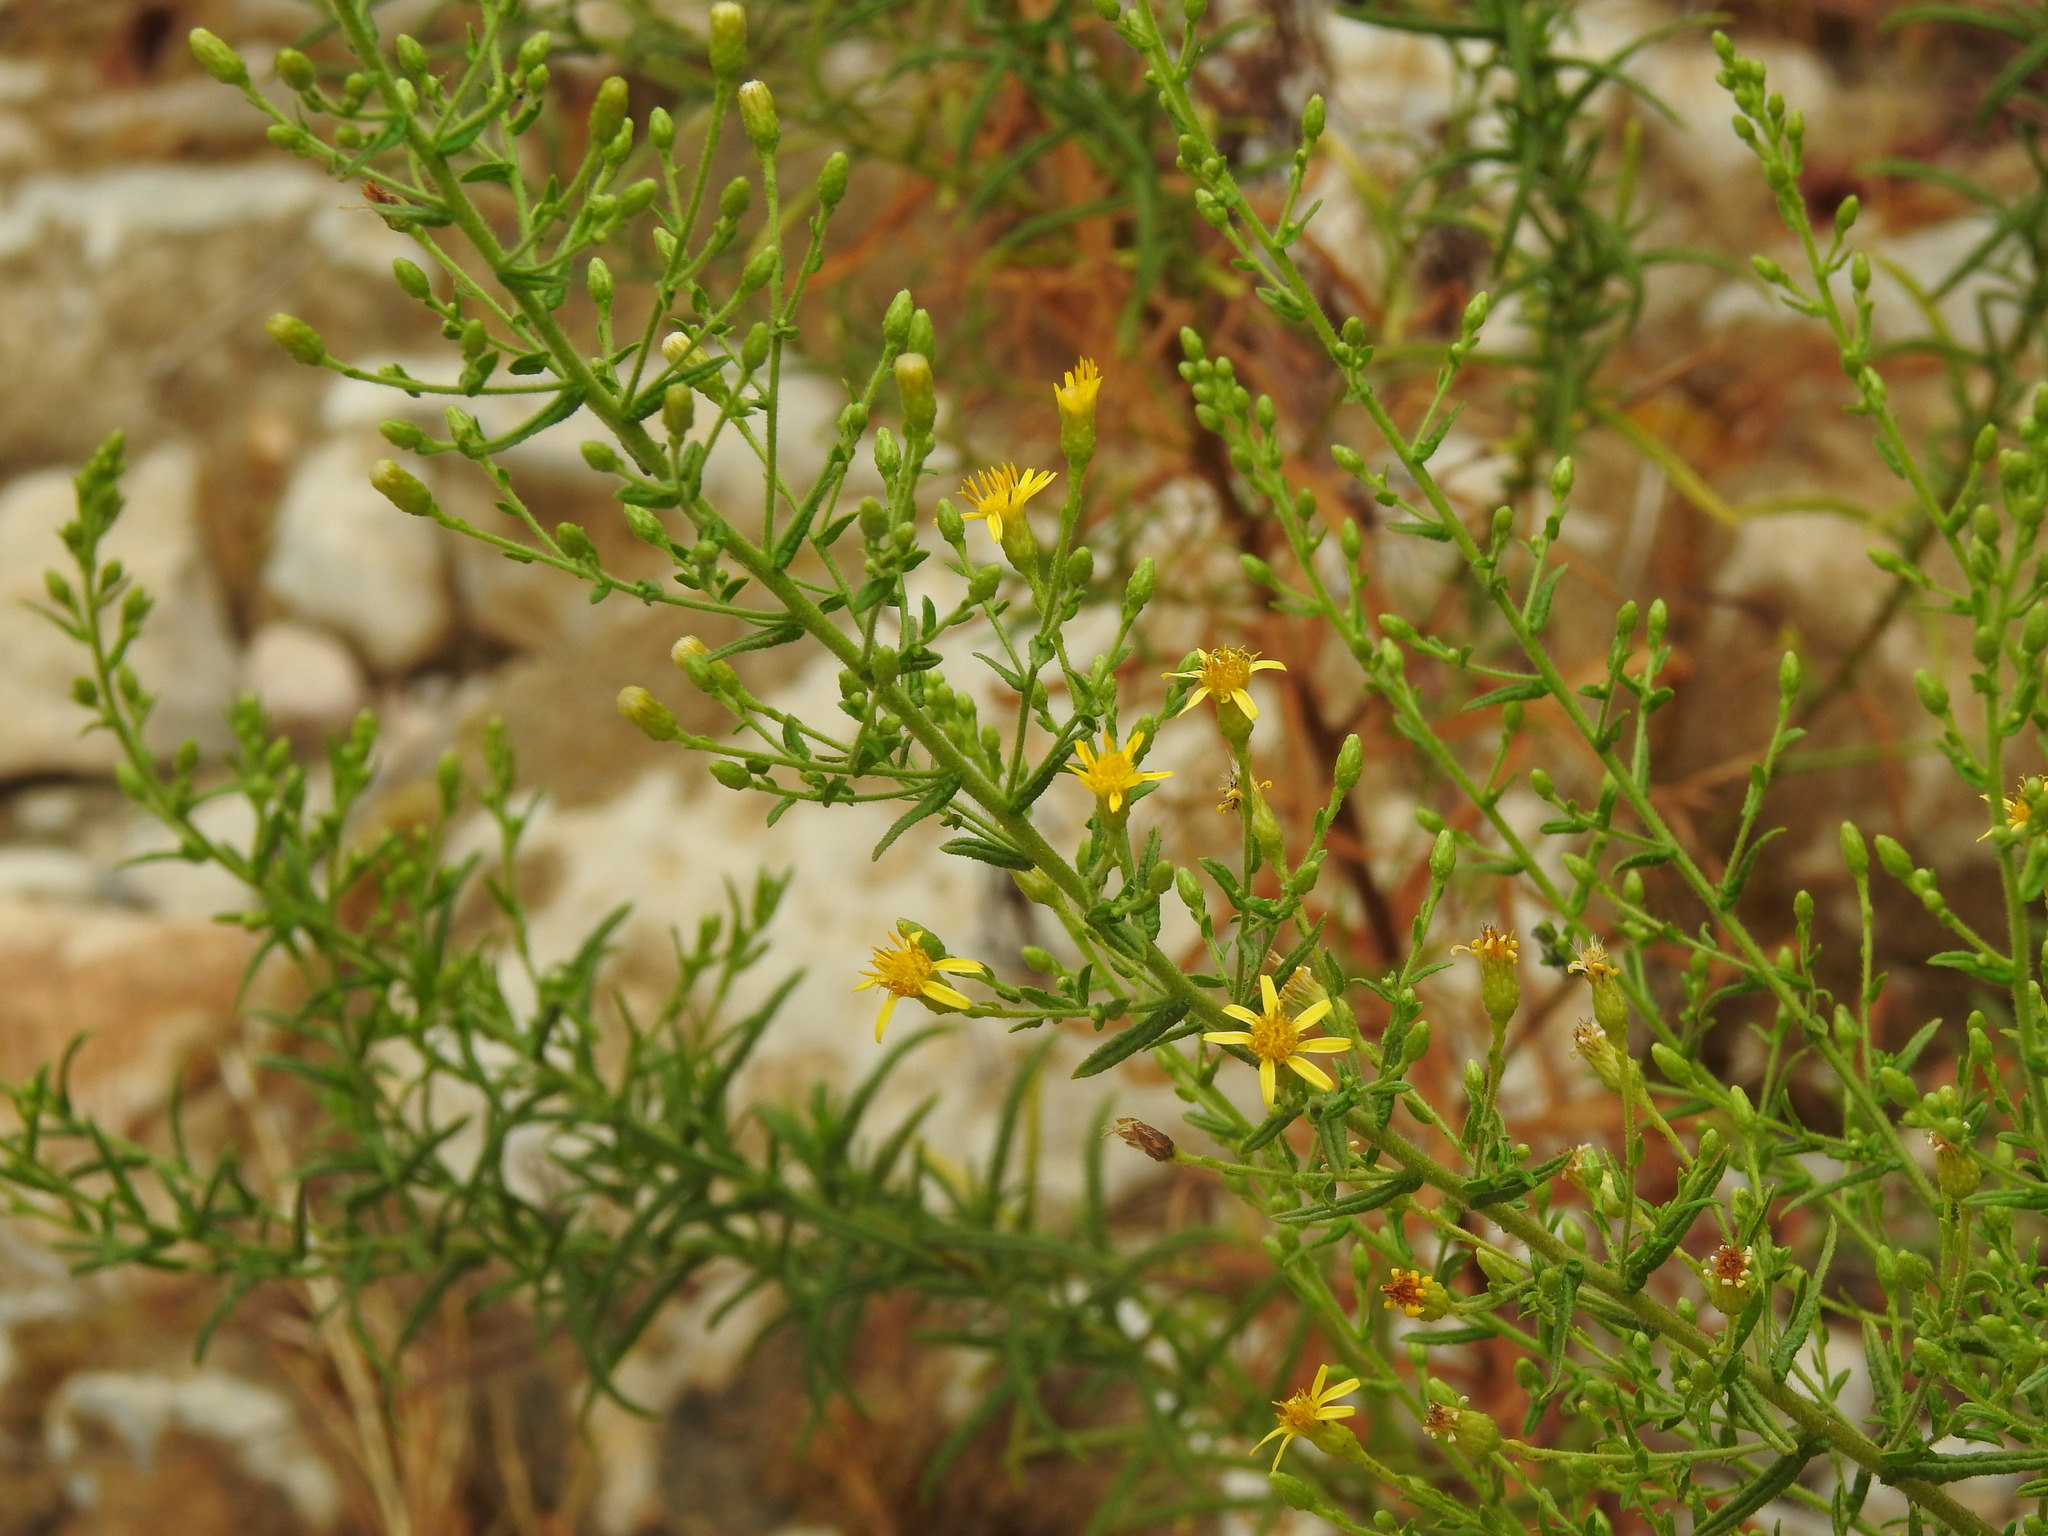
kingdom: Plantae
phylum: Tracheophyta
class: Magnoliopsida
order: Asterales
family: Asteraceae
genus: Dittrichia
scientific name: Dittrichia viscosa
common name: Woody fleabane
